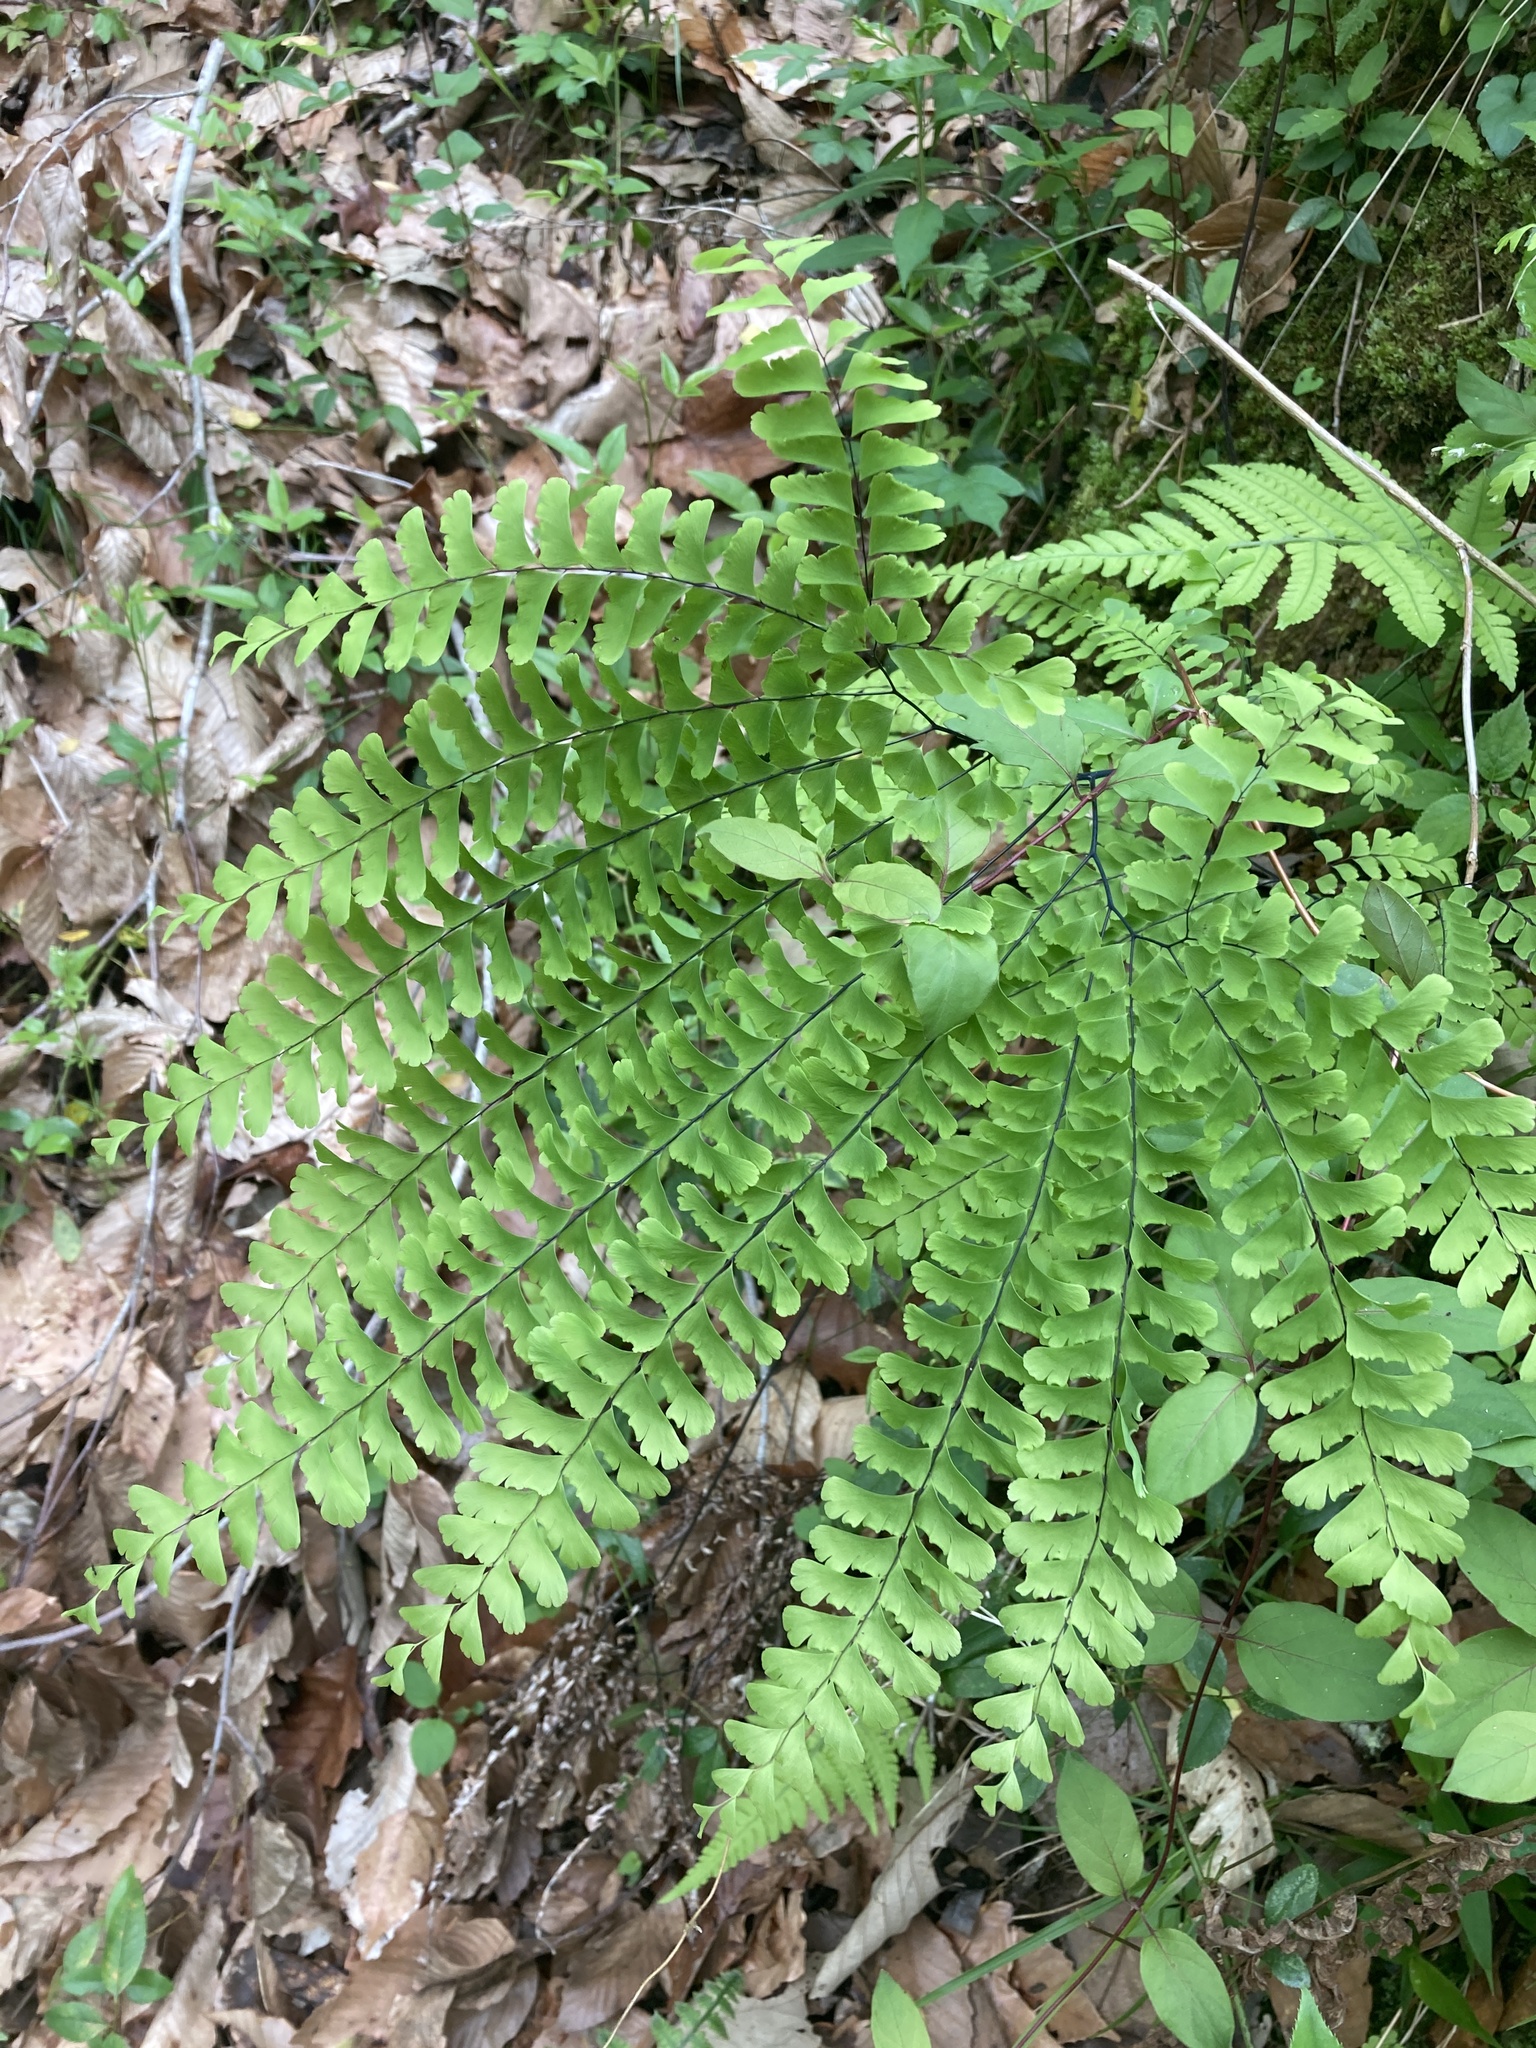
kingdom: Plantae
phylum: Tracheophyta
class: Polypodiopsida
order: Polypodiales
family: Pteridaceae
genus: Adiantum
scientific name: Adiantum pedatum
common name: Five-finger fern
